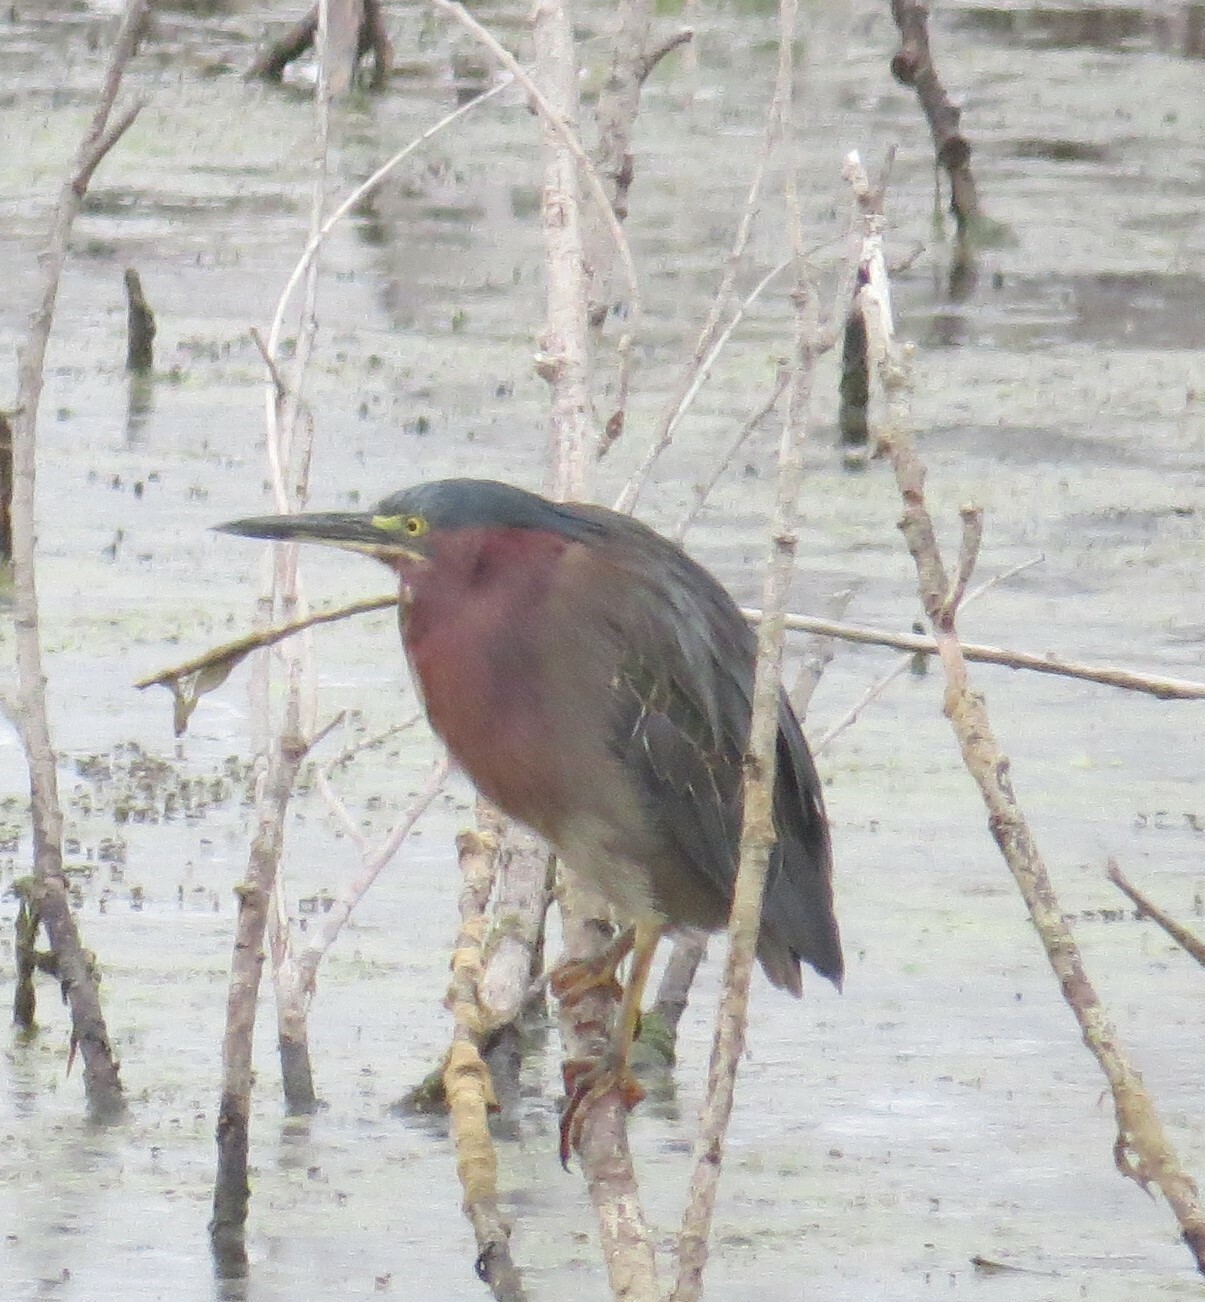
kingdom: Animalia
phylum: Chordata
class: Aves
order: Pelecaniformes
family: Ardeidae
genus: Butorides
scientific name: Butorides virescens
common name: Green heron
